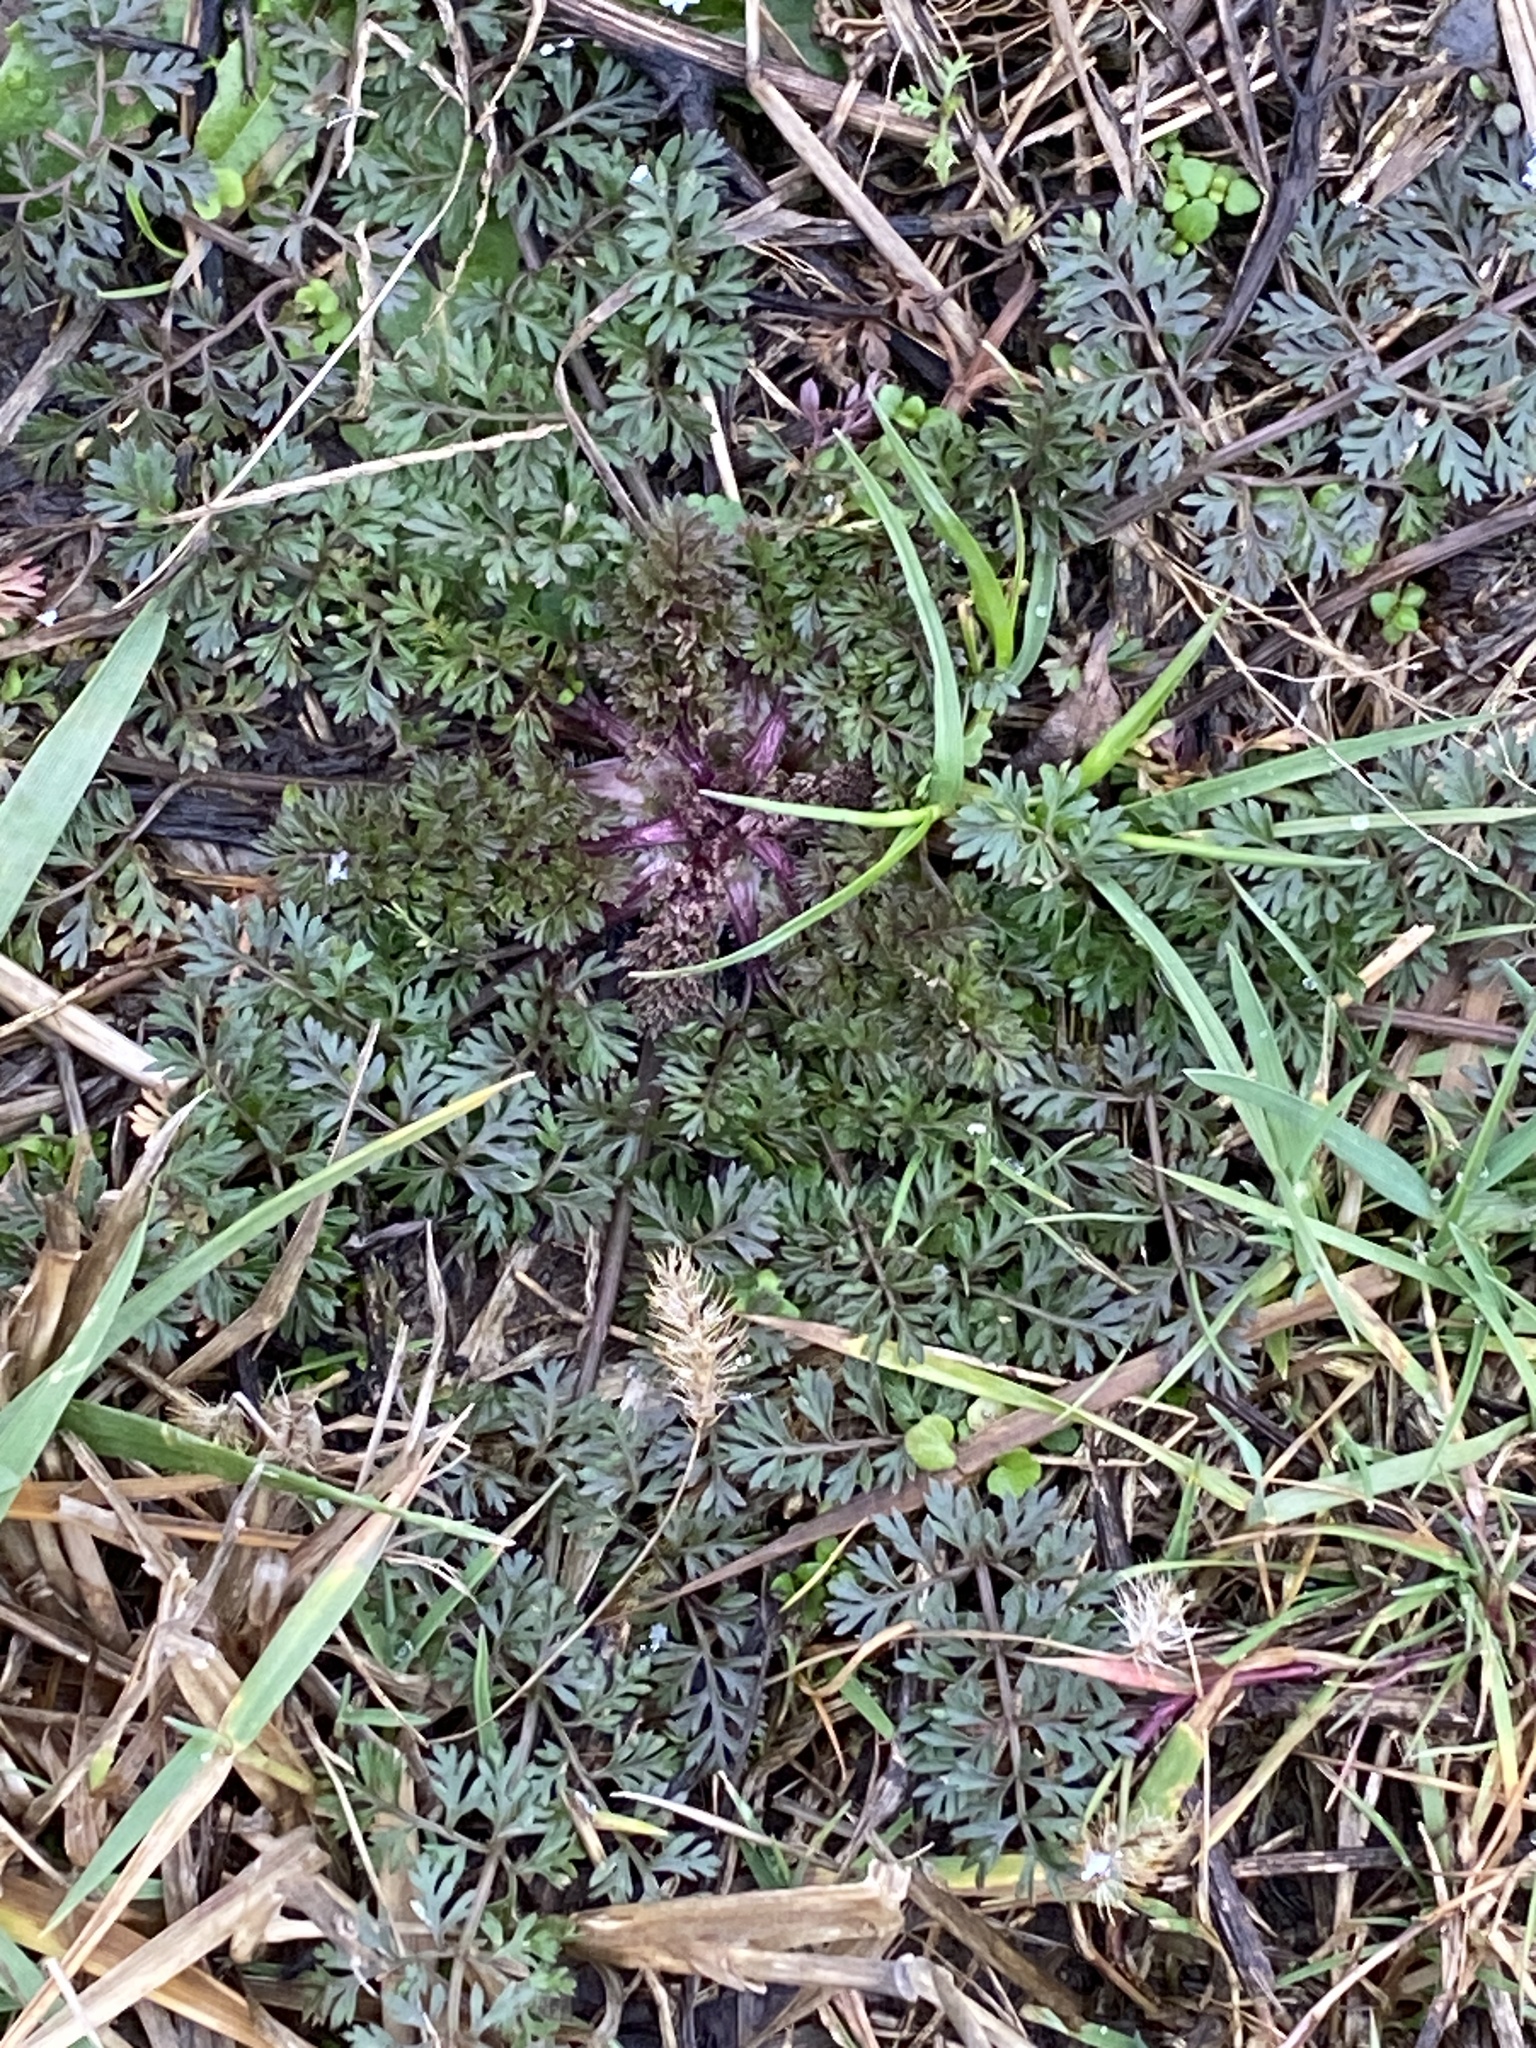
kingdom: Plantae
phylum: Tracheophyta
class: Magnoliopsida
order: Apiales
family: Apiaceae
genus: Daucus
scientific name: Daucus carota
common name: Wild carrot
